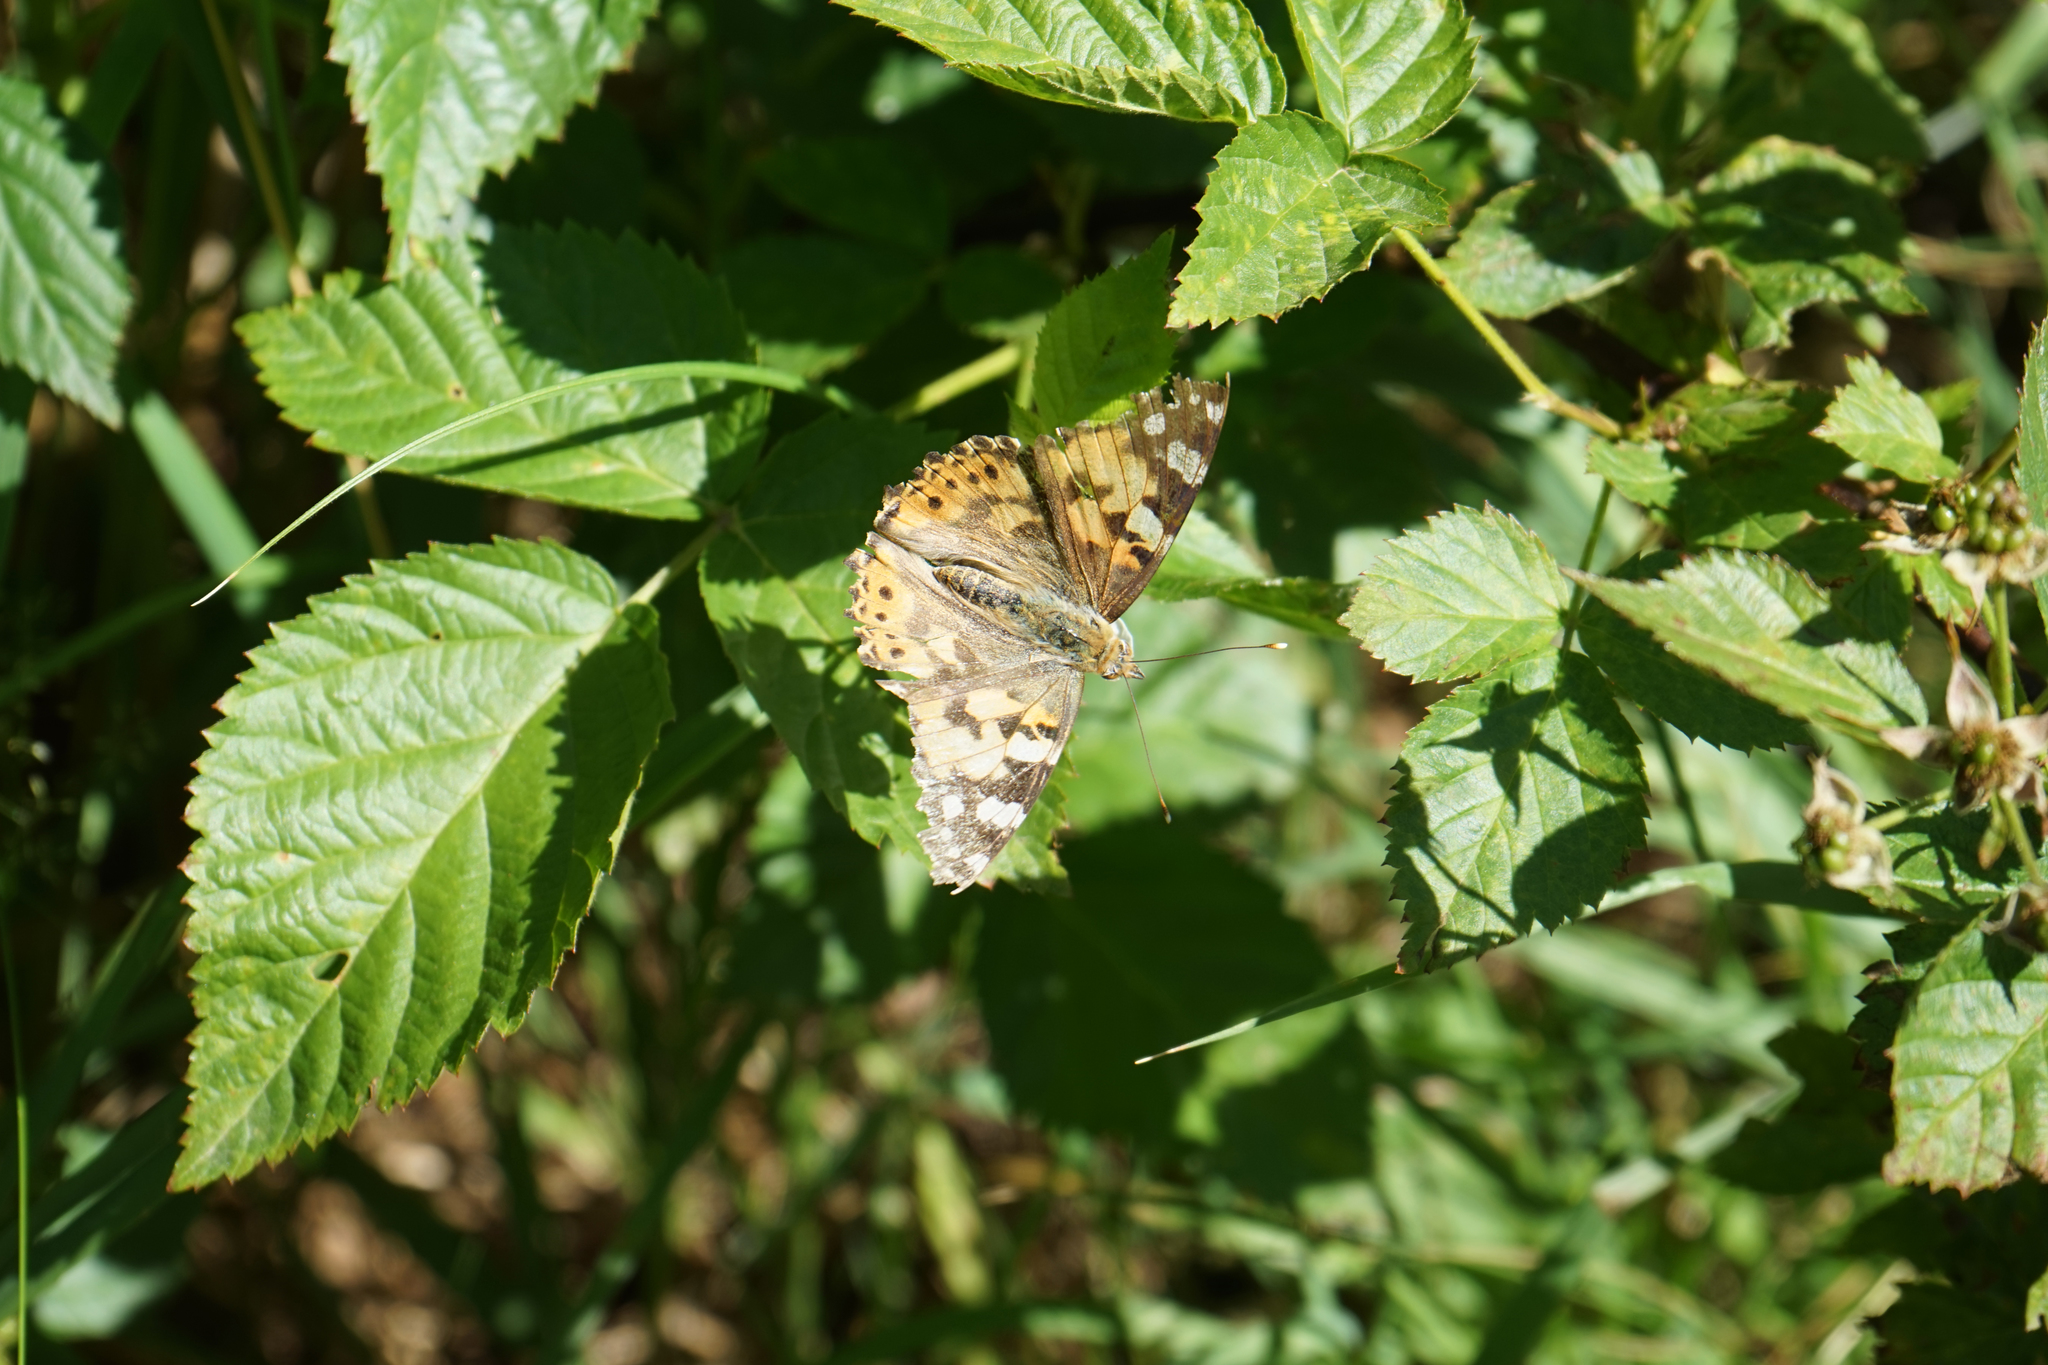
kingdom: Animalia
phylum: Arthropoda
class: Insecta
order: Lepidoptera
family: Nymphalidae
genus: Vanessa
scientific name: Vanessa cardui
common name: Painted lady
